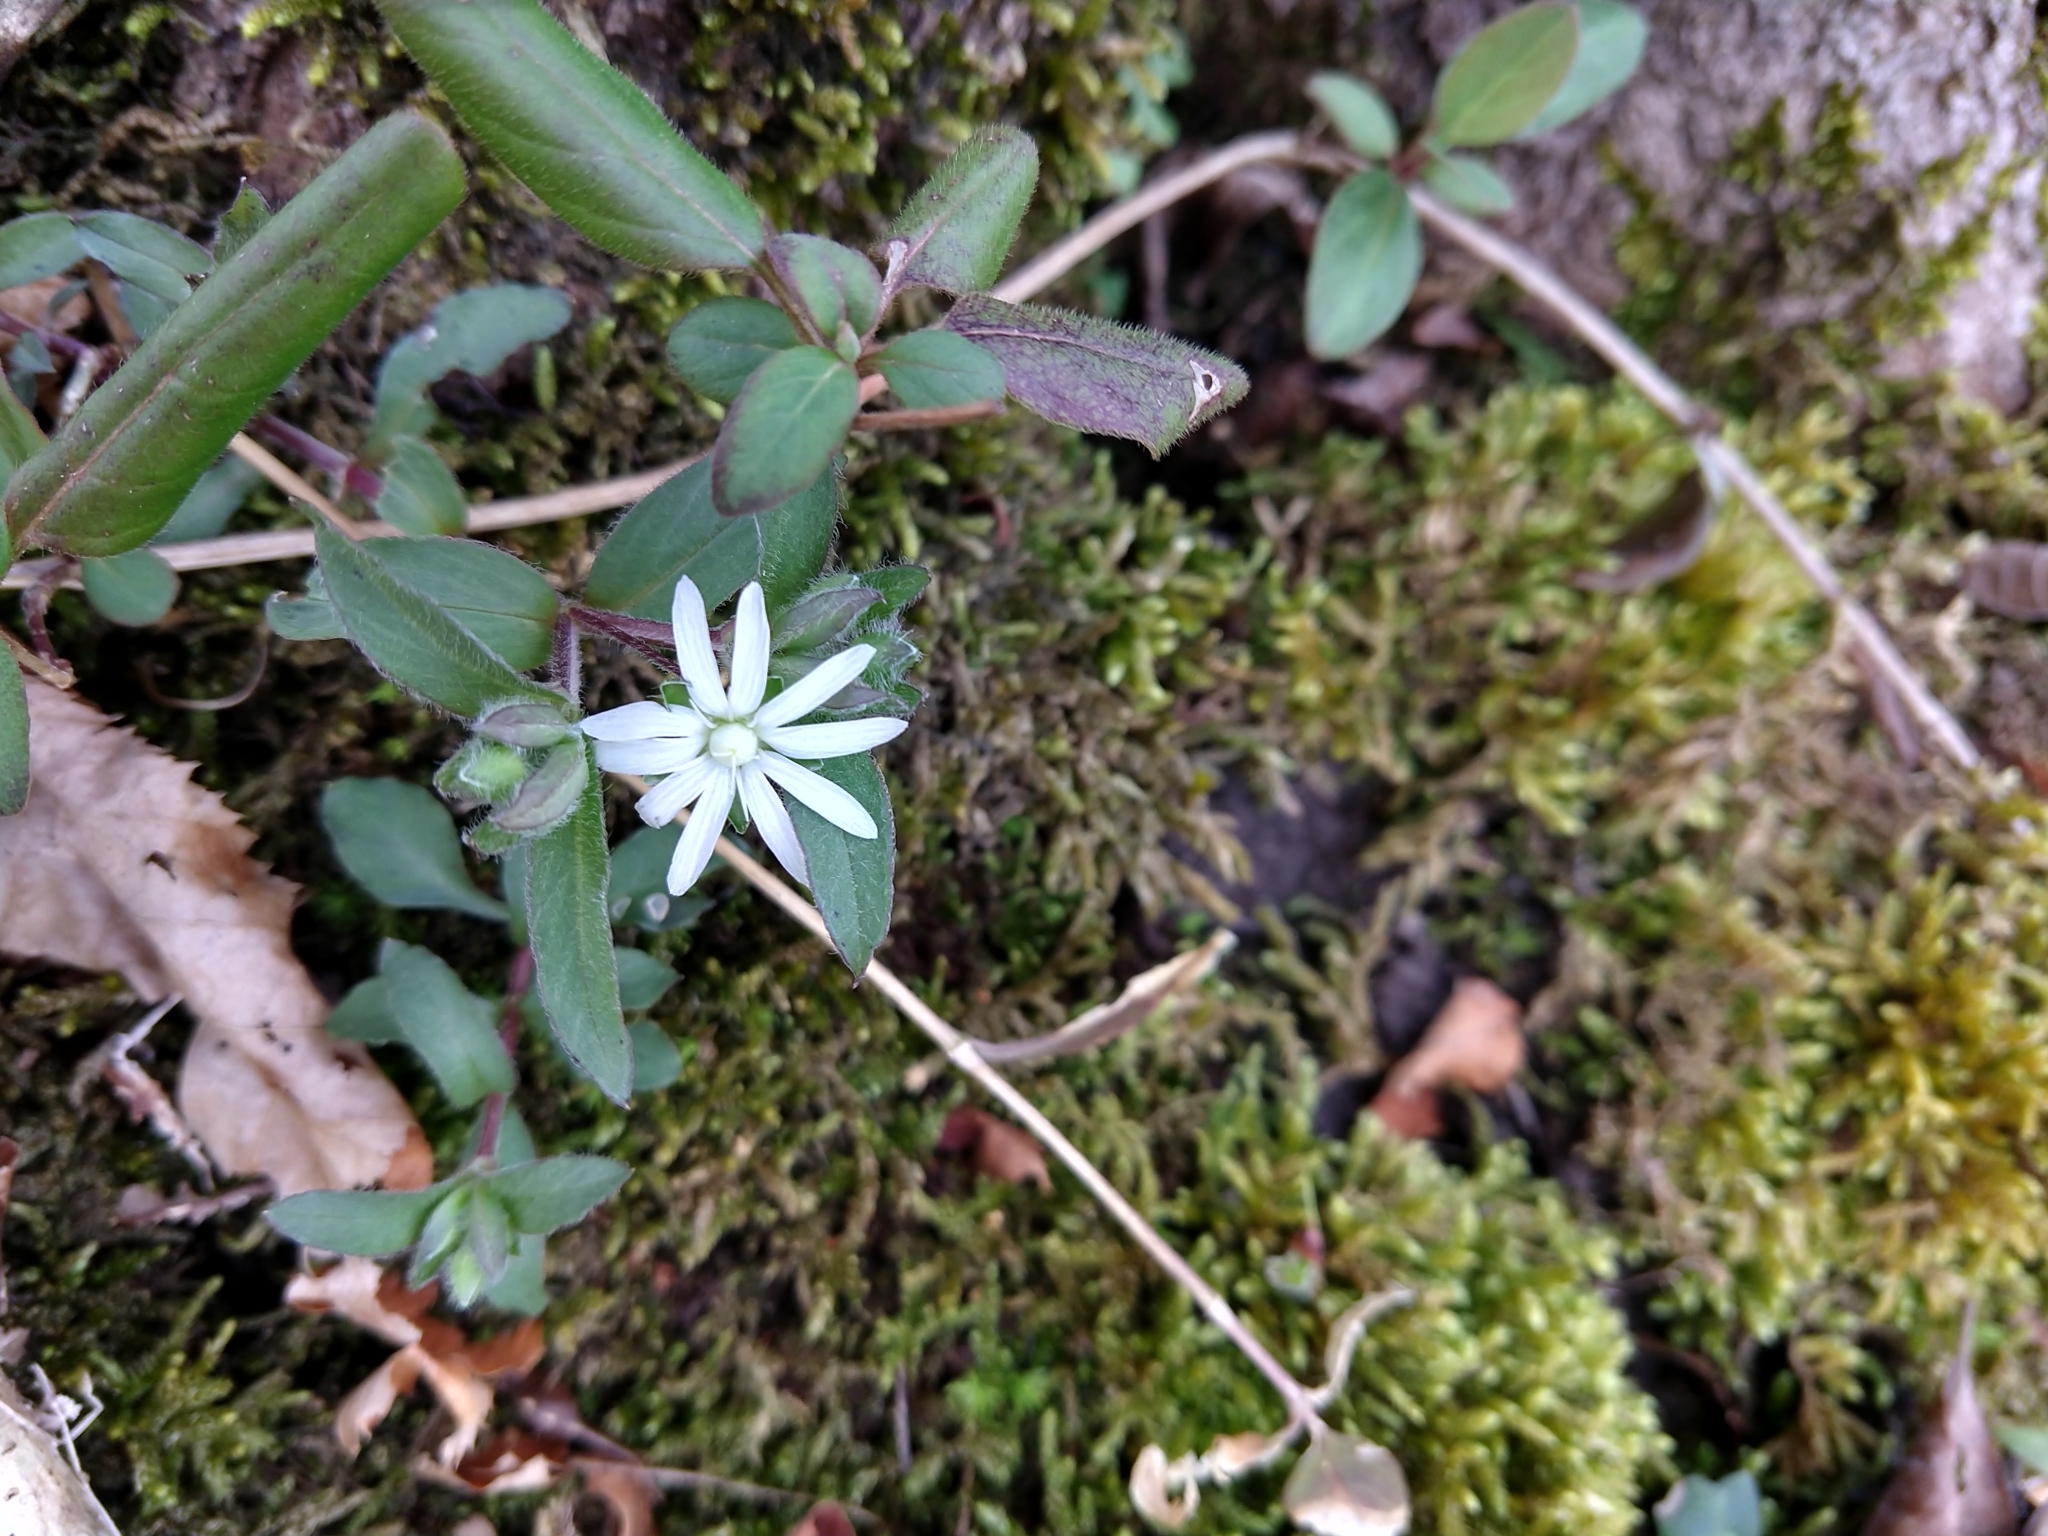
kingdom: Plantae
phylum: Tracheophyta
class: Magnoliopsida
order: Caryophyllales
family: Caryophyllaceae
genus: Stellaria
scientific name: Stellaria pubera
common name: Star chickweed
